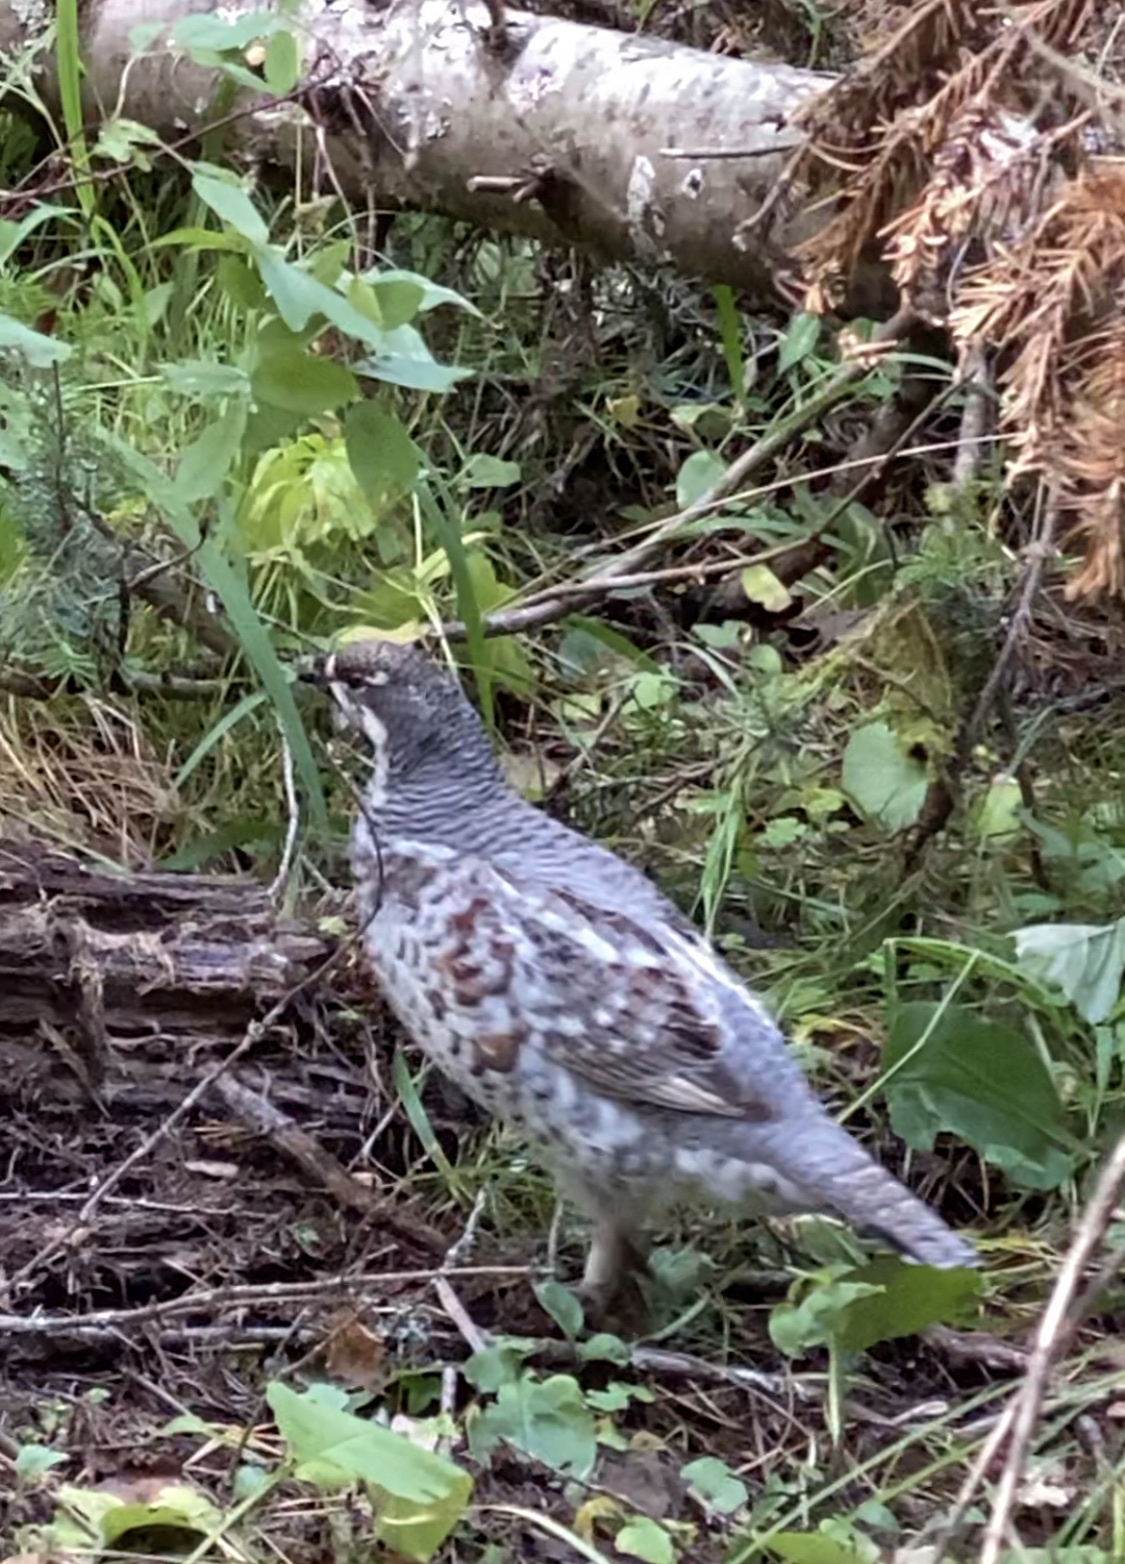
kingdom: Animalia
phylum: Chordata
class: Aves
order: Galliformes
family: Phasianidae
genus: Tetrastes
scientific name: Tetrastes bonasia
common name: Hazel grouse
